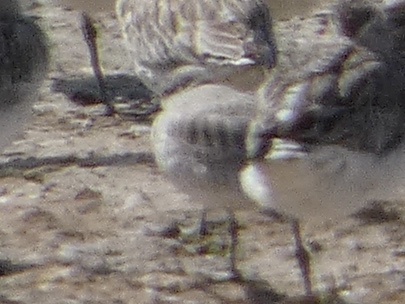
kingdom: Animalia
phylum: Chordata
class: Aves
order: Charadriiformes
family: Scolopacidae
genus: Calidris
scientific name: Calidris canutus
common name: Red knot
